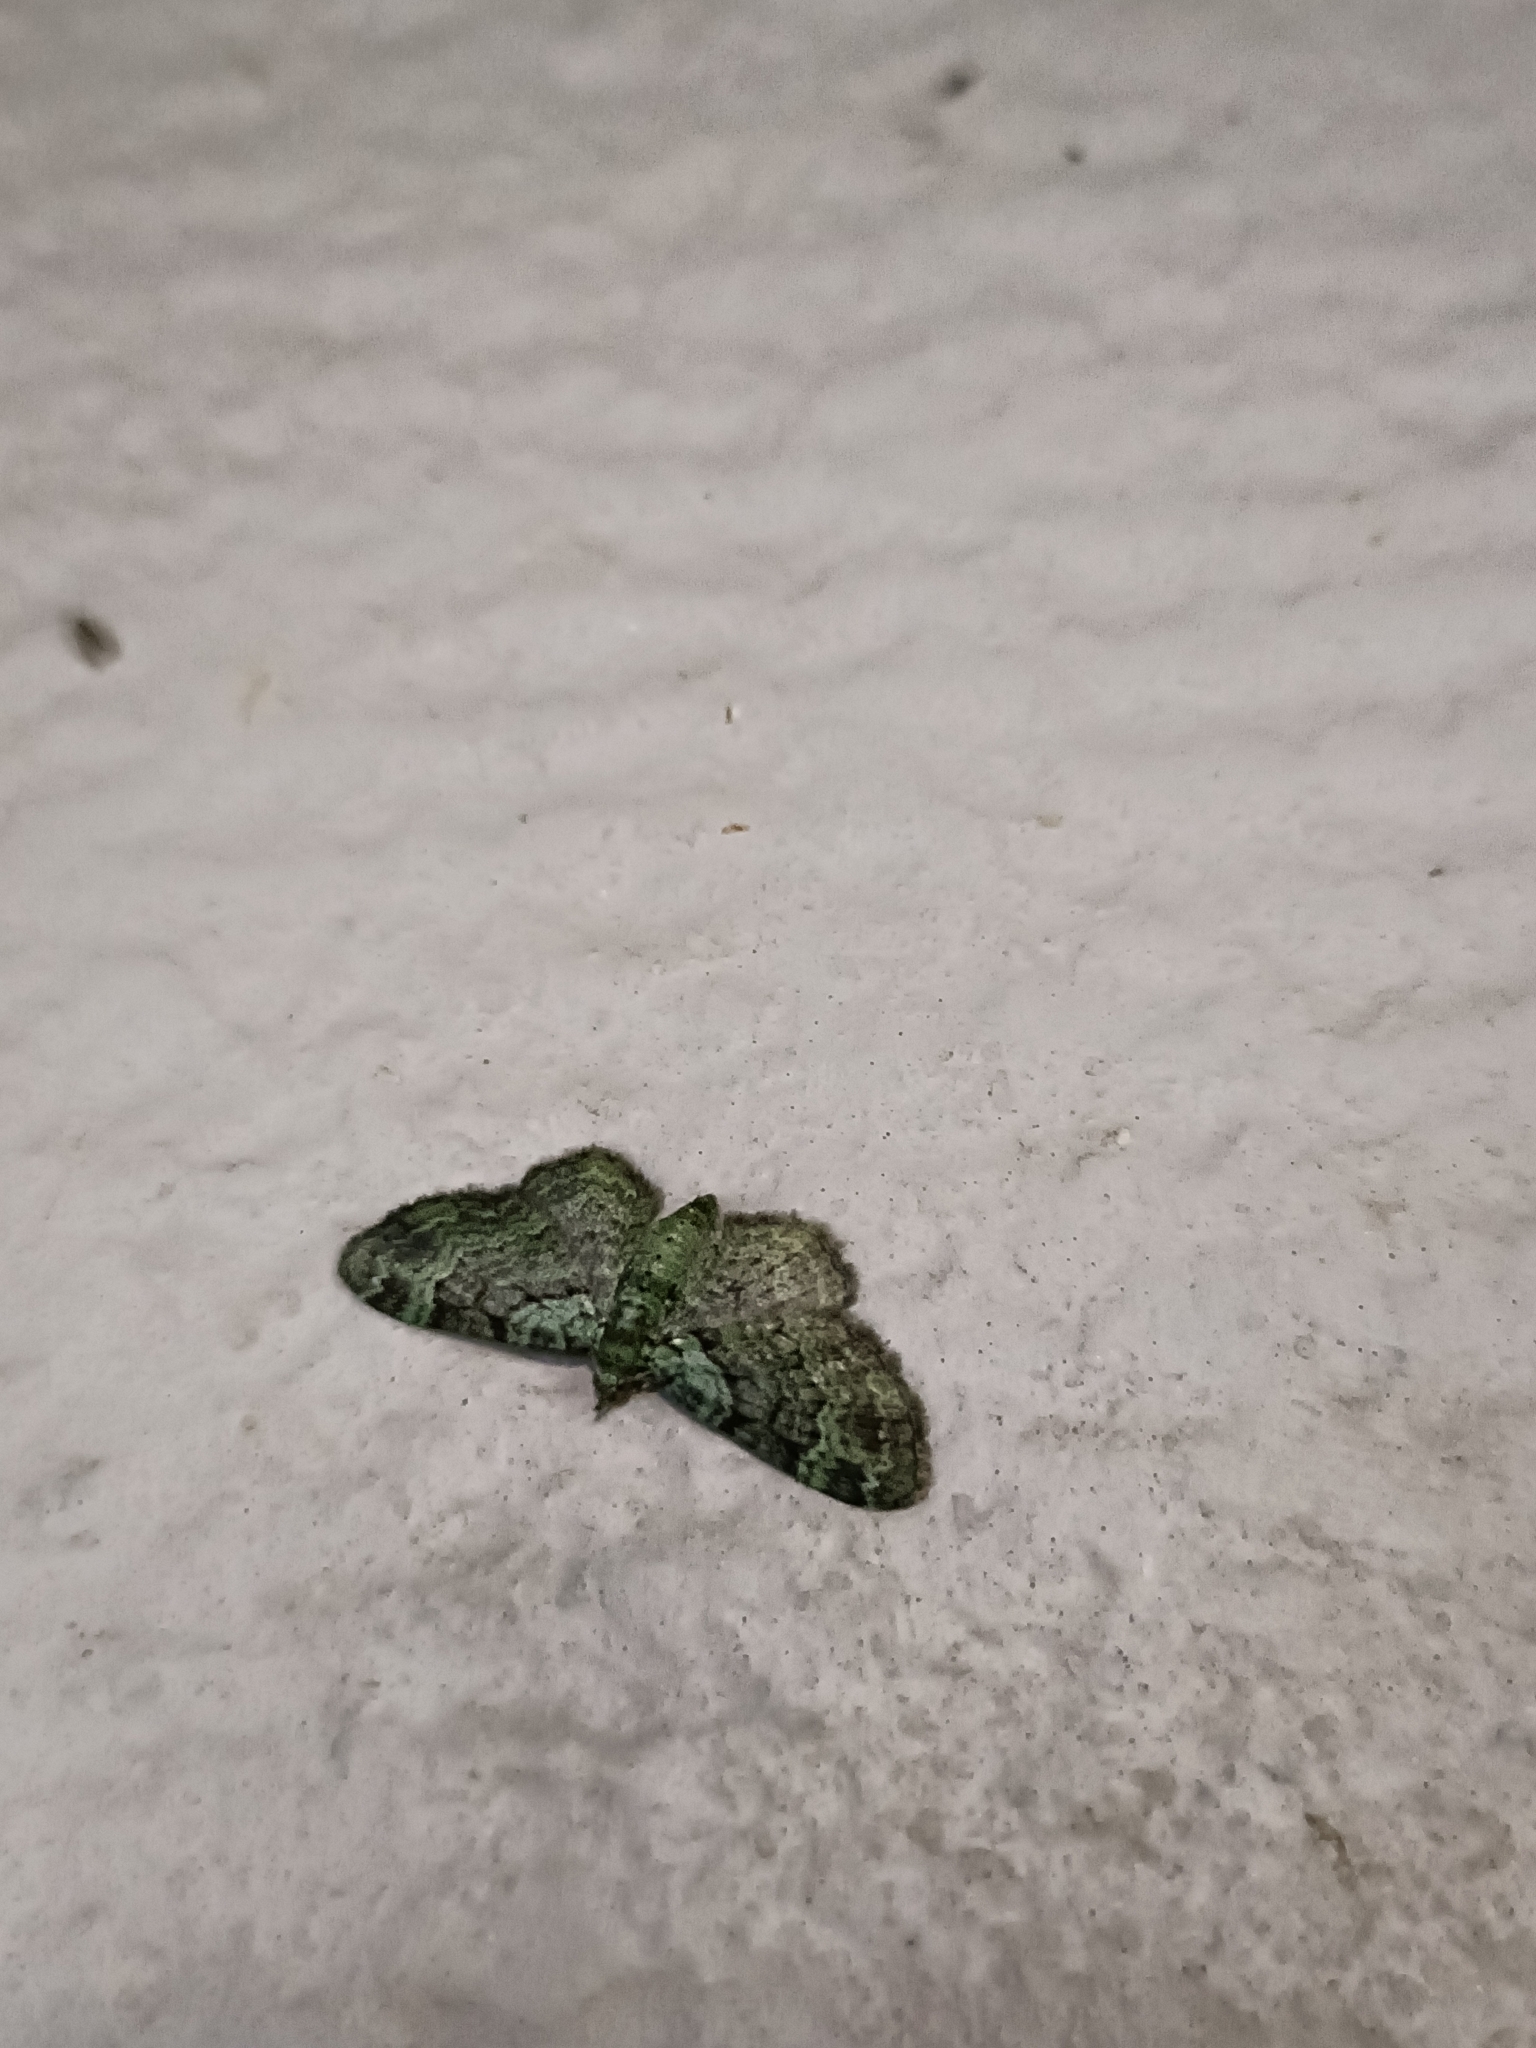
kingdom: Animalia
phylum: Arthropoda
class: Insecta
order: Lepidoptera
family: Geometridae
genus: Pasiphila
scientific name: Pasiphila rectangulata
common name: Green pug
